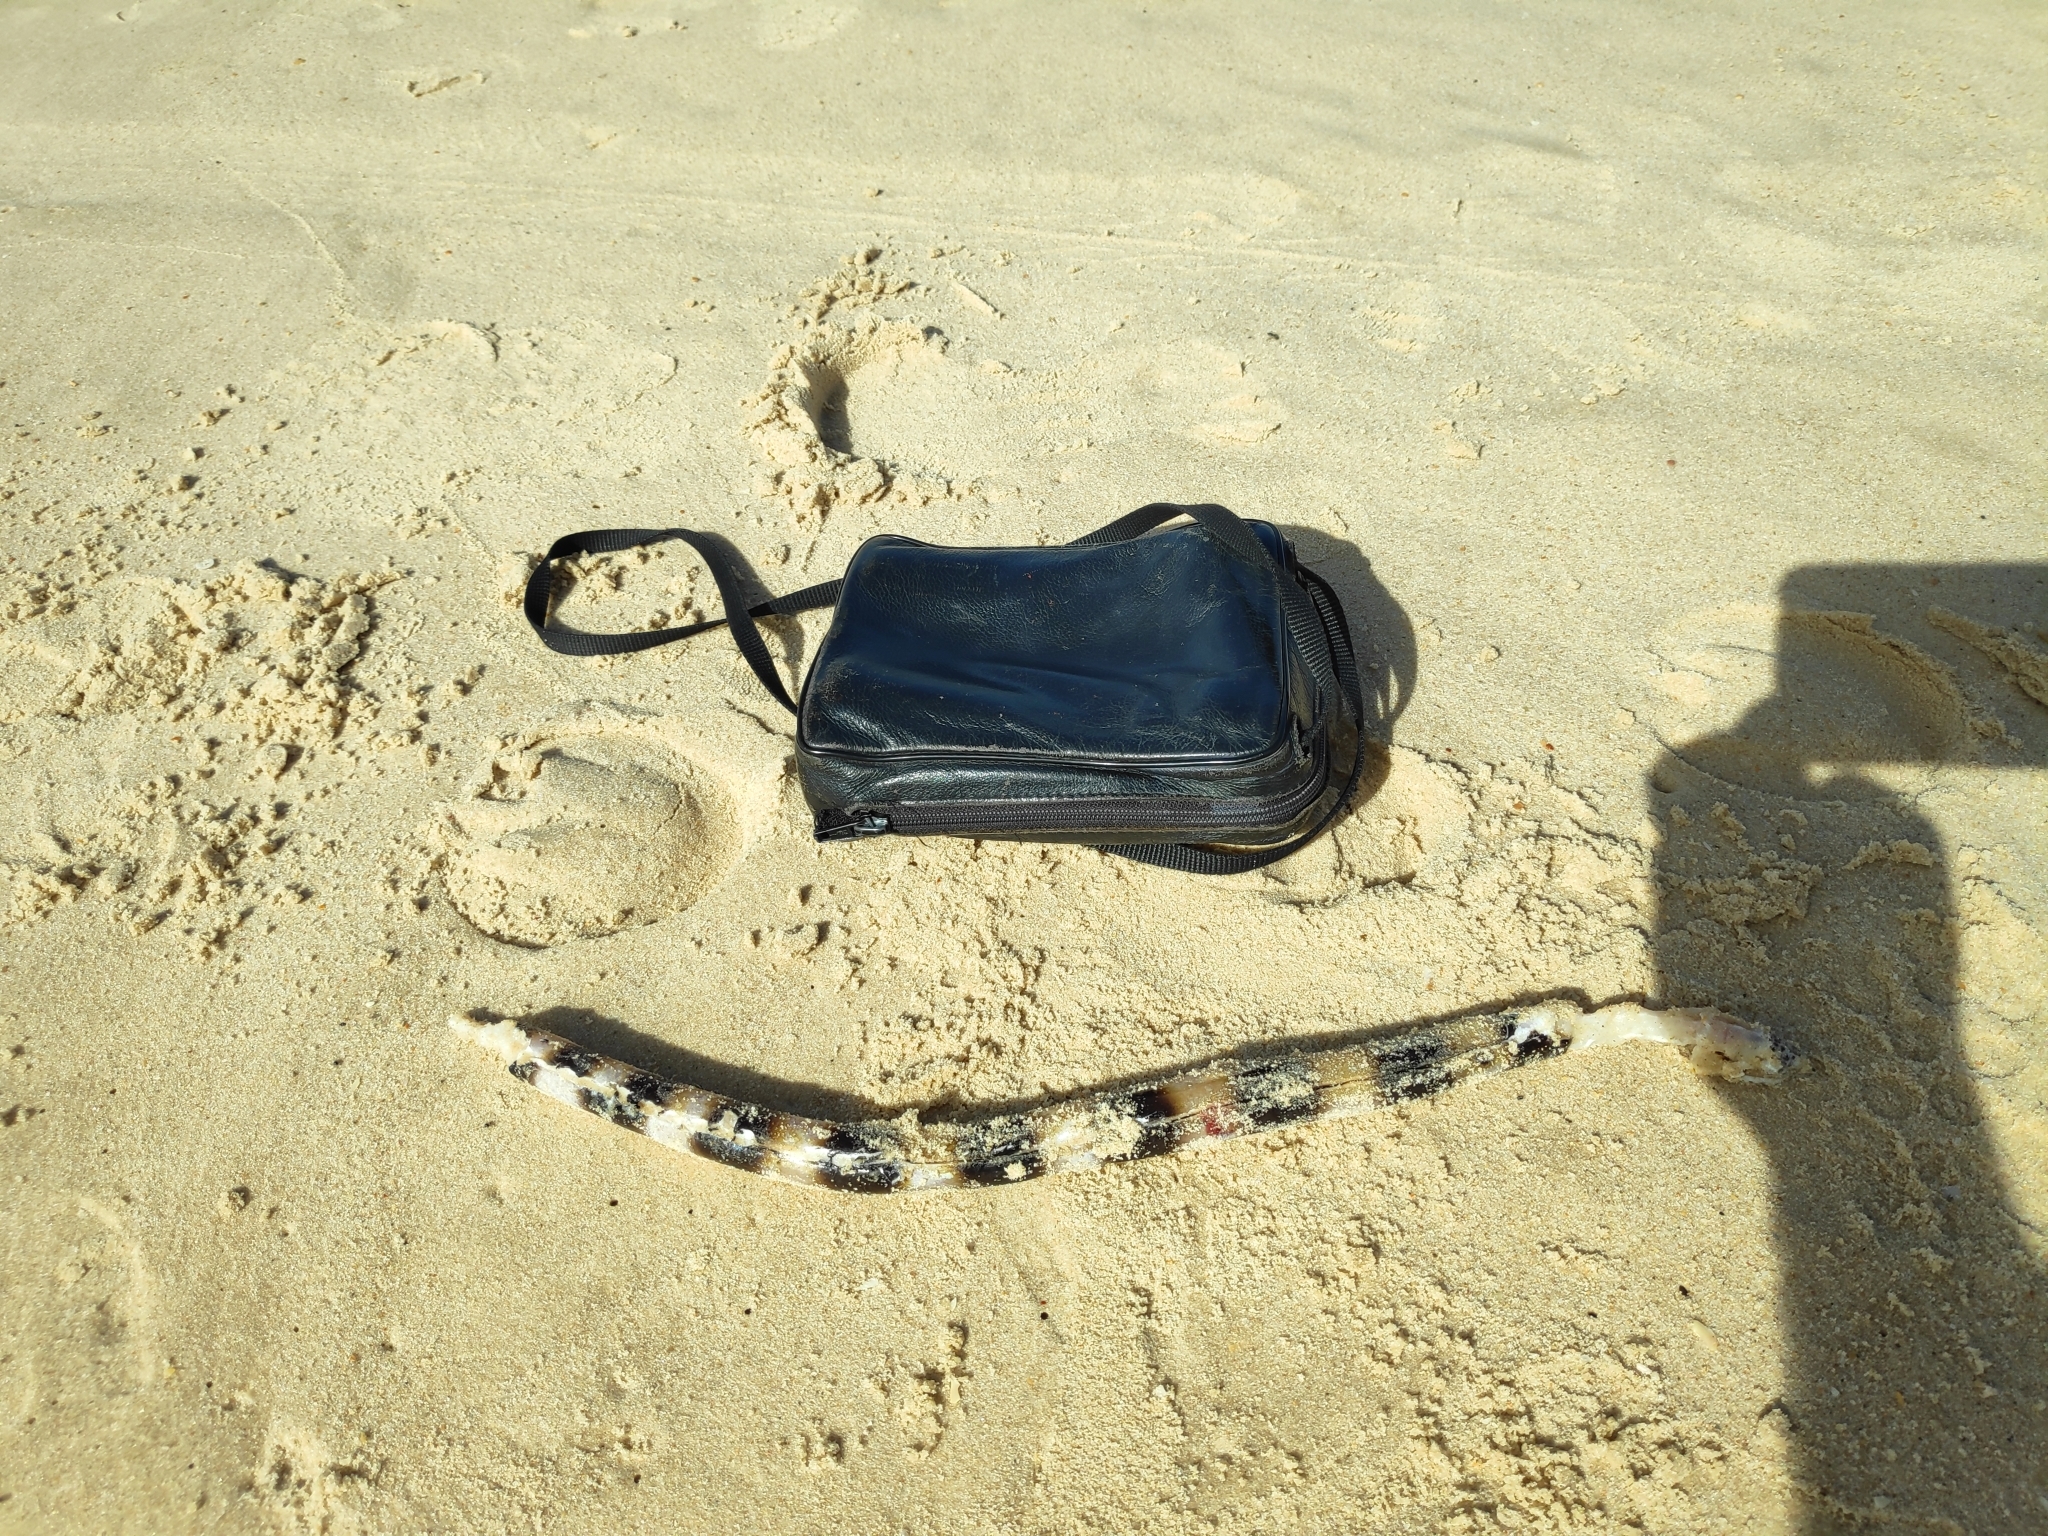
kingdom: Animalia
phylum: Chordata
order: Anguilliformes
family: Ophichthidae
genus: Pisodonophis
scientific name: Pisodonophis semicinctus
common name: Saddled snake eel
